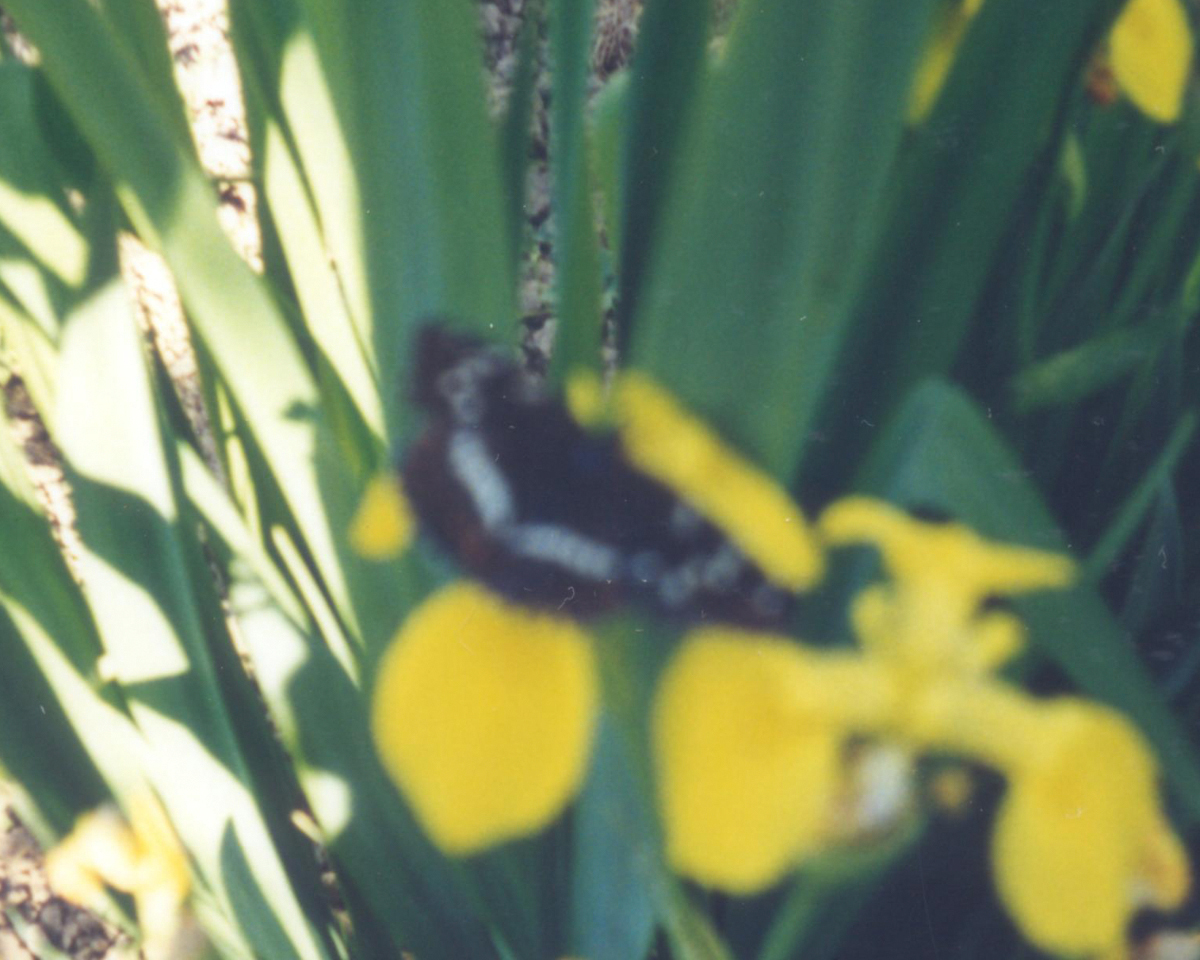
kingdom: Animalia
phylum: Arthropoda
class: Insecta
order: Lepidoptera
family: Nymphalidae
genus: Limenitis
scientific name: Limenitis populi
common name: Poplar admiral
